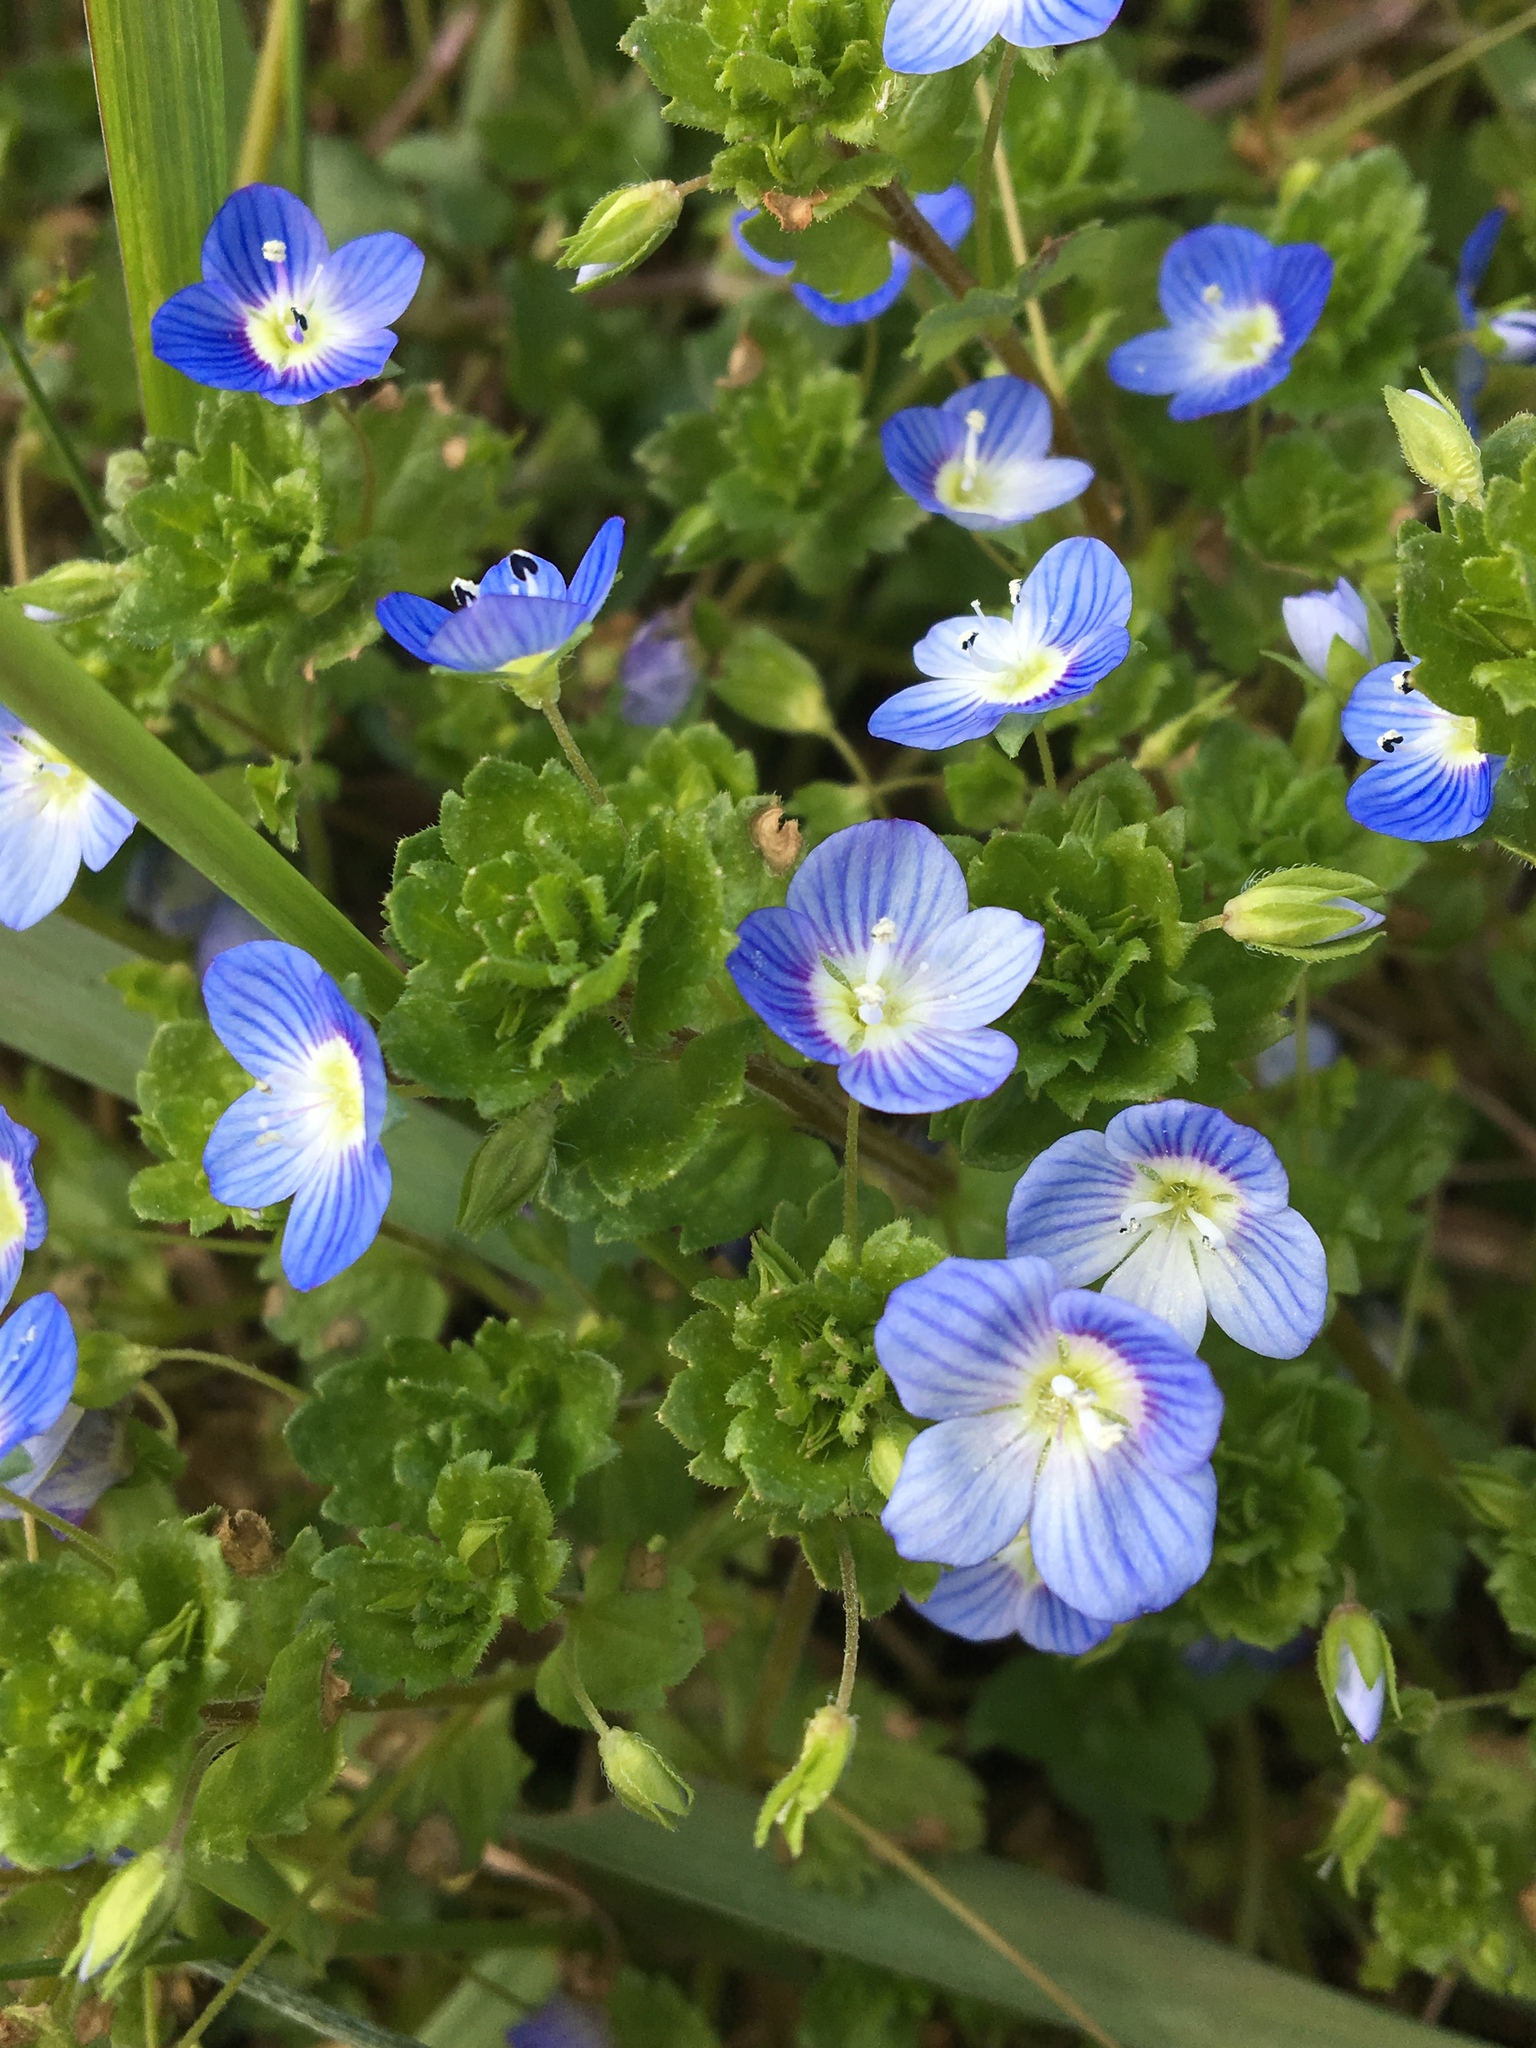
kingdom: Plantae
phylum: Tracheophyta
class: Magnoliopsida
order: Lamiales
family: Plantaginaceae
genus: Veronica
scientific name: Veronica persica
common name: Common field-speedwell
